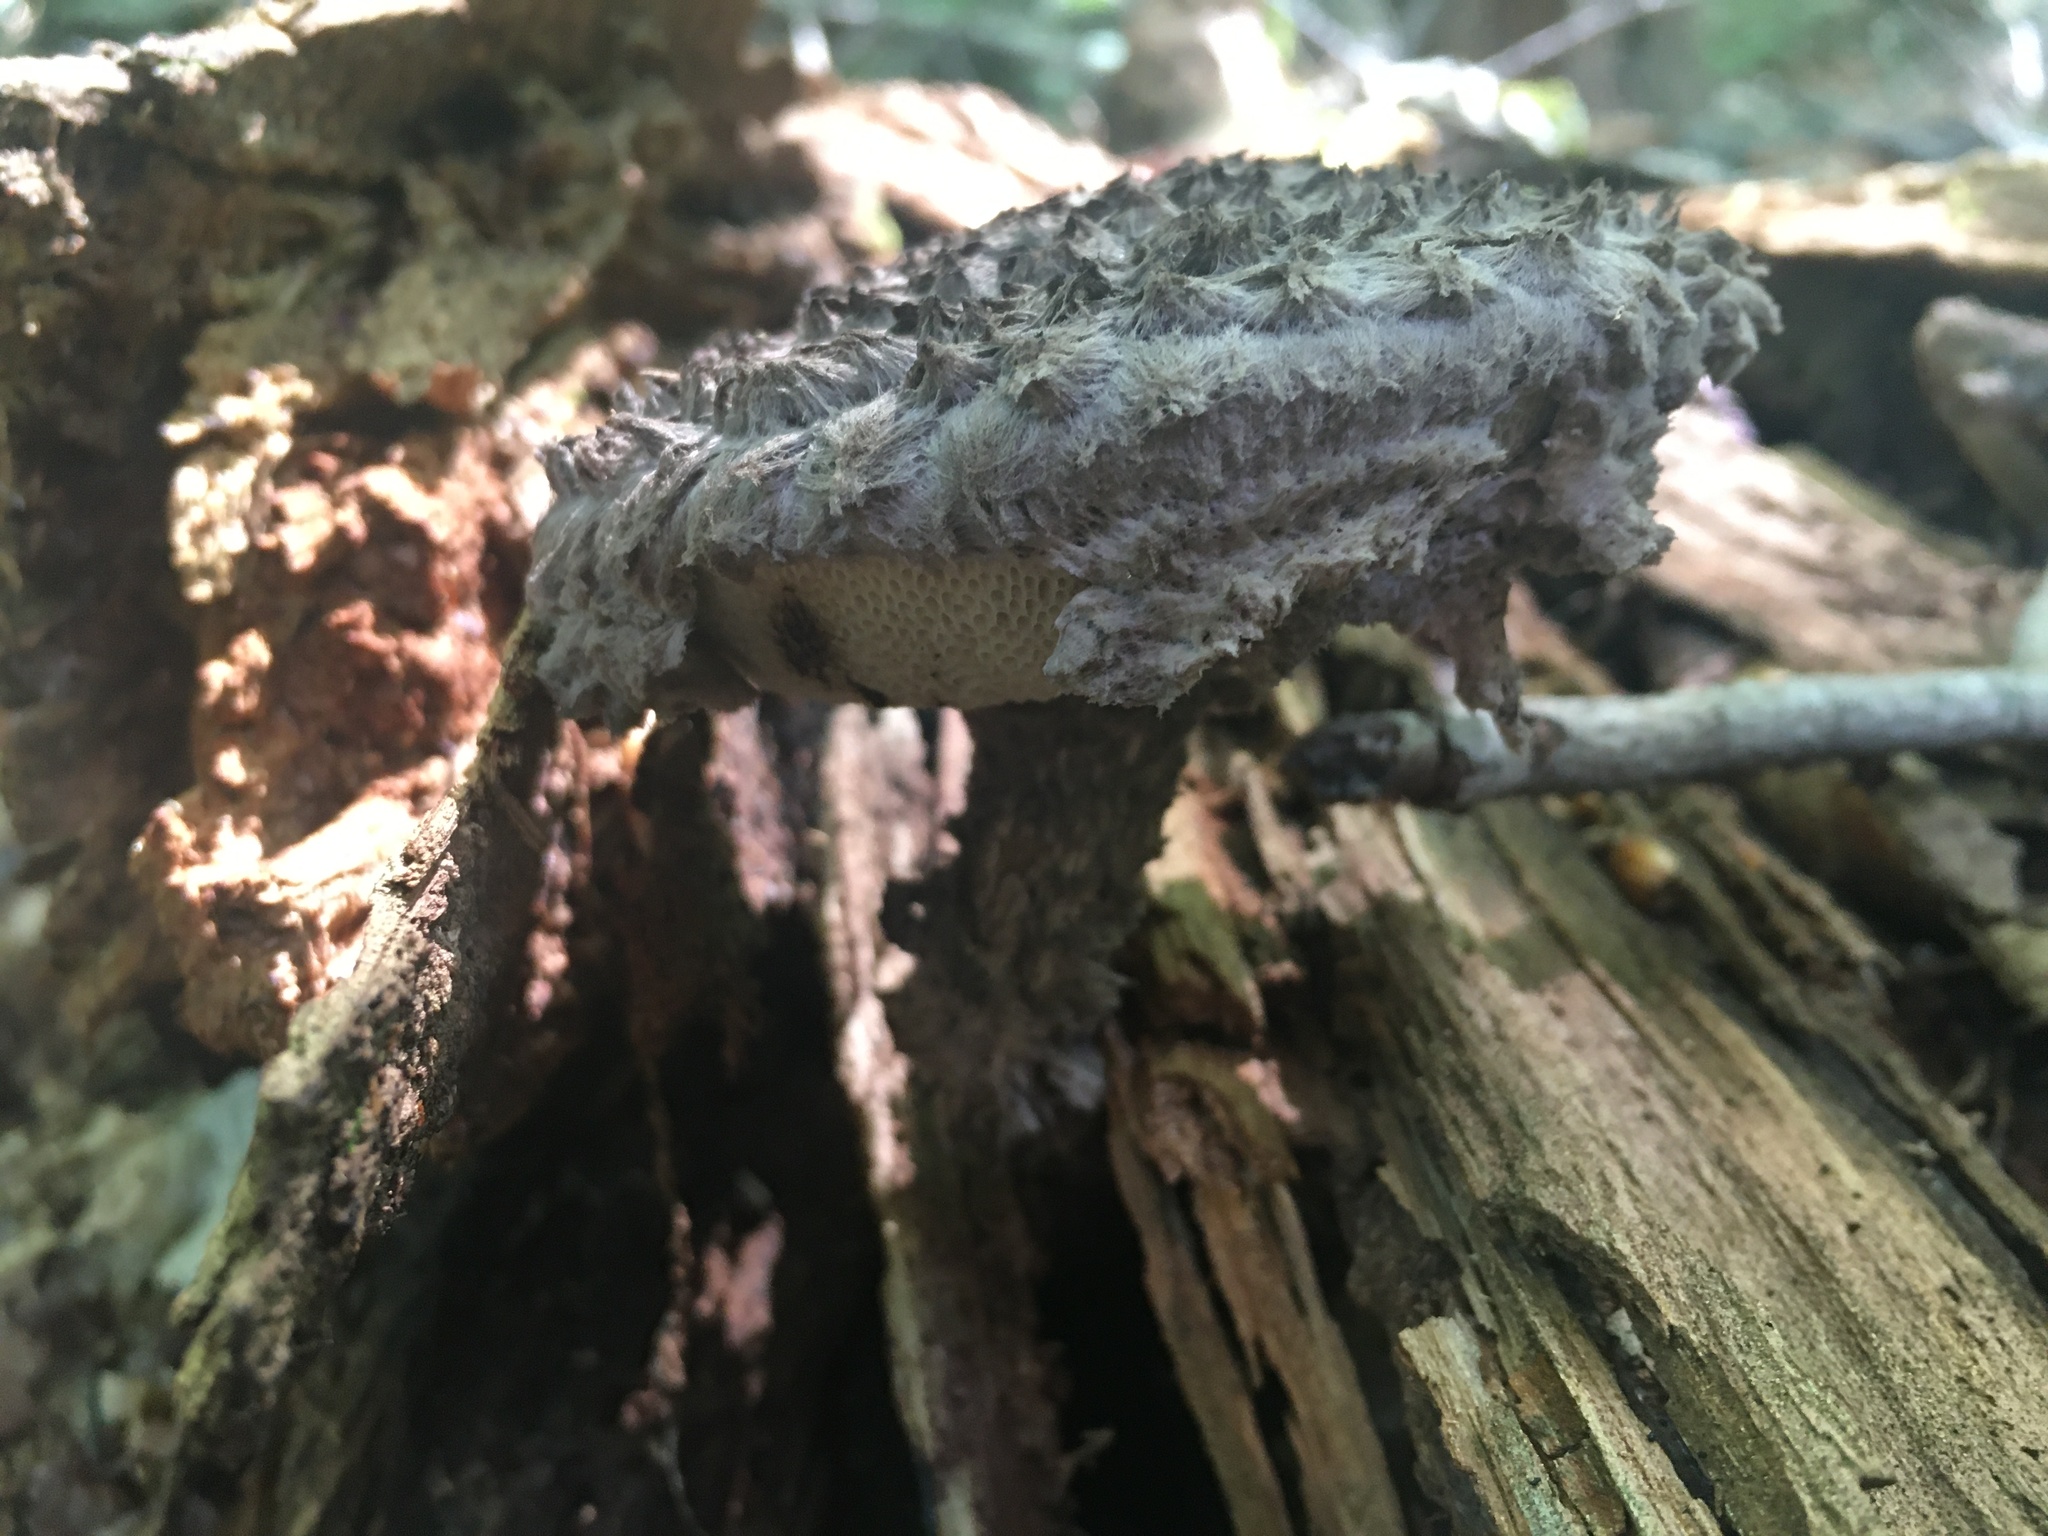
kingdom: Fungi
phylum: Basidiomycota
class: Agaricomycetes
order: Boletales
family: Boletaceae
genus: Strobilomyces
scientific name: Strobilomyces strobilaceus
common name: Old man of the woods
